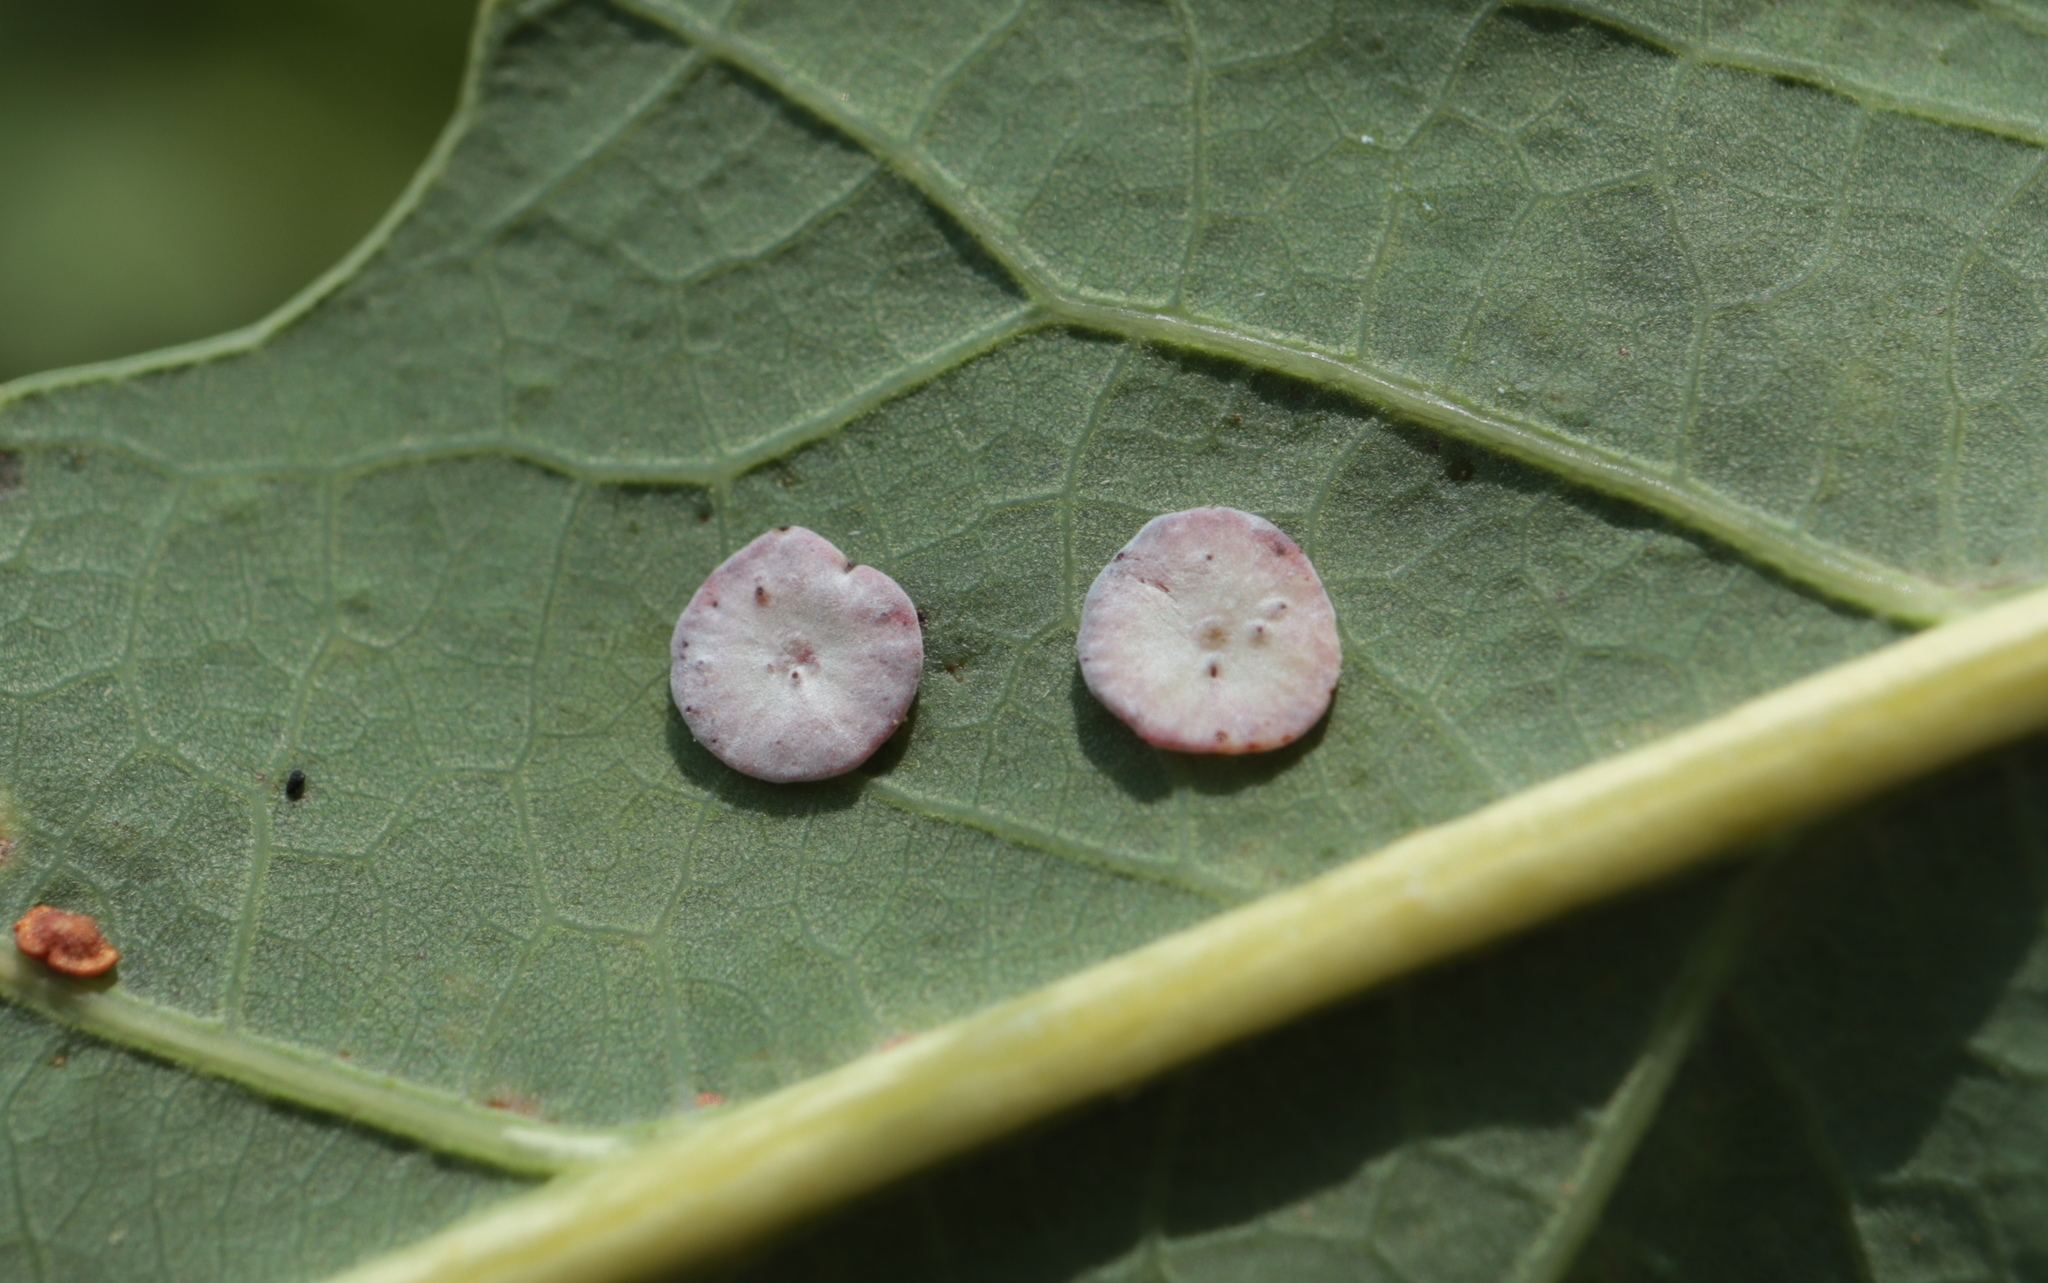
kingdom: Animalia
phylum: Arthropoda
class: Insecta
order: Hymenoptera
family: Cynipidae
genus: Phylloteras
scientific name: Phylloteras poculum
